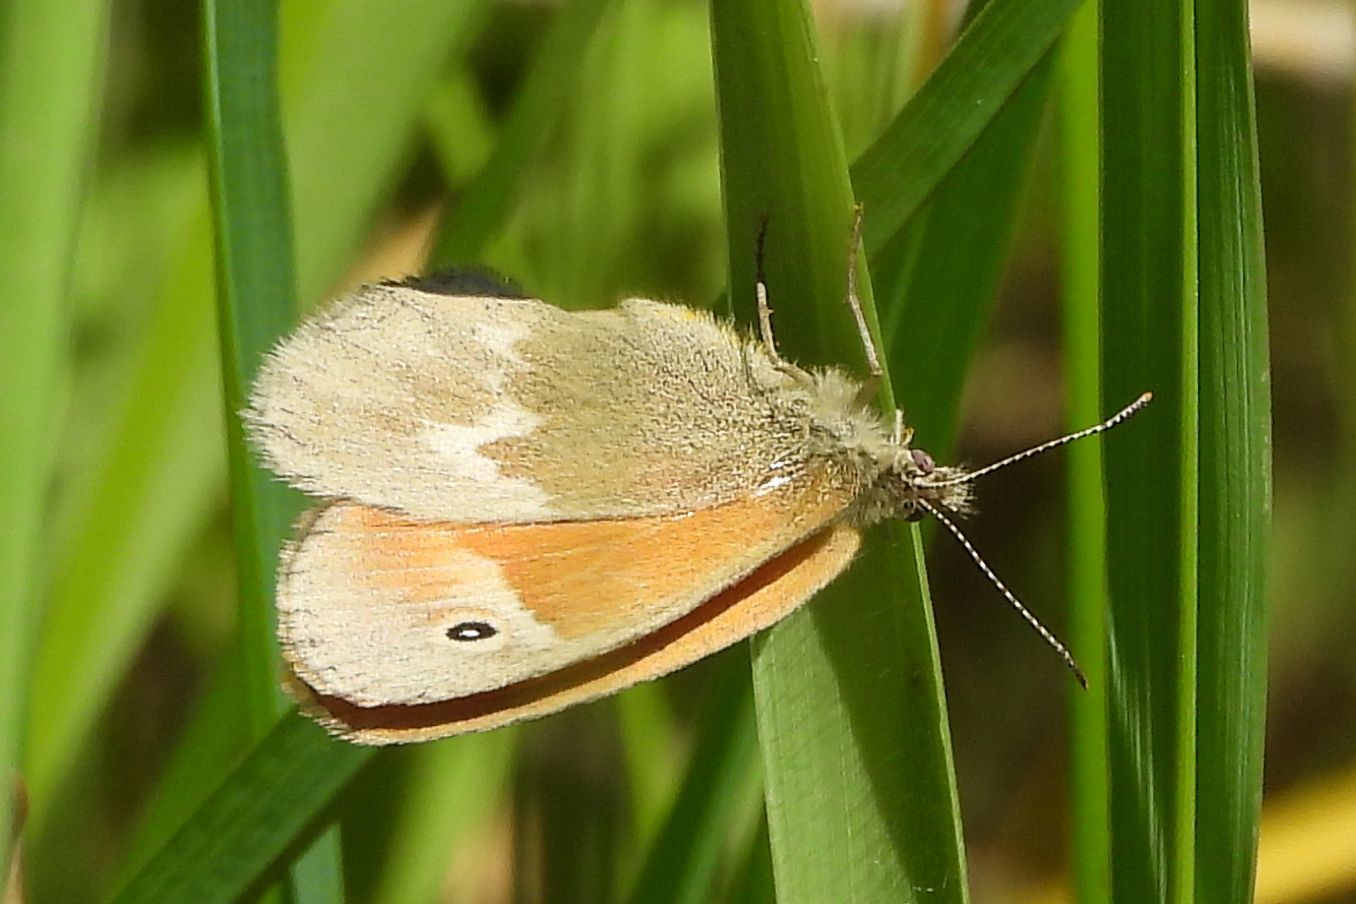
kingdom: Animalia
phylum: Arthropoda
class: Insecta
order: Lepidoptera
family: Nymphalidae
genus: Coenonympha
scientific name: Coenonympha california
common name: Common ringlet
